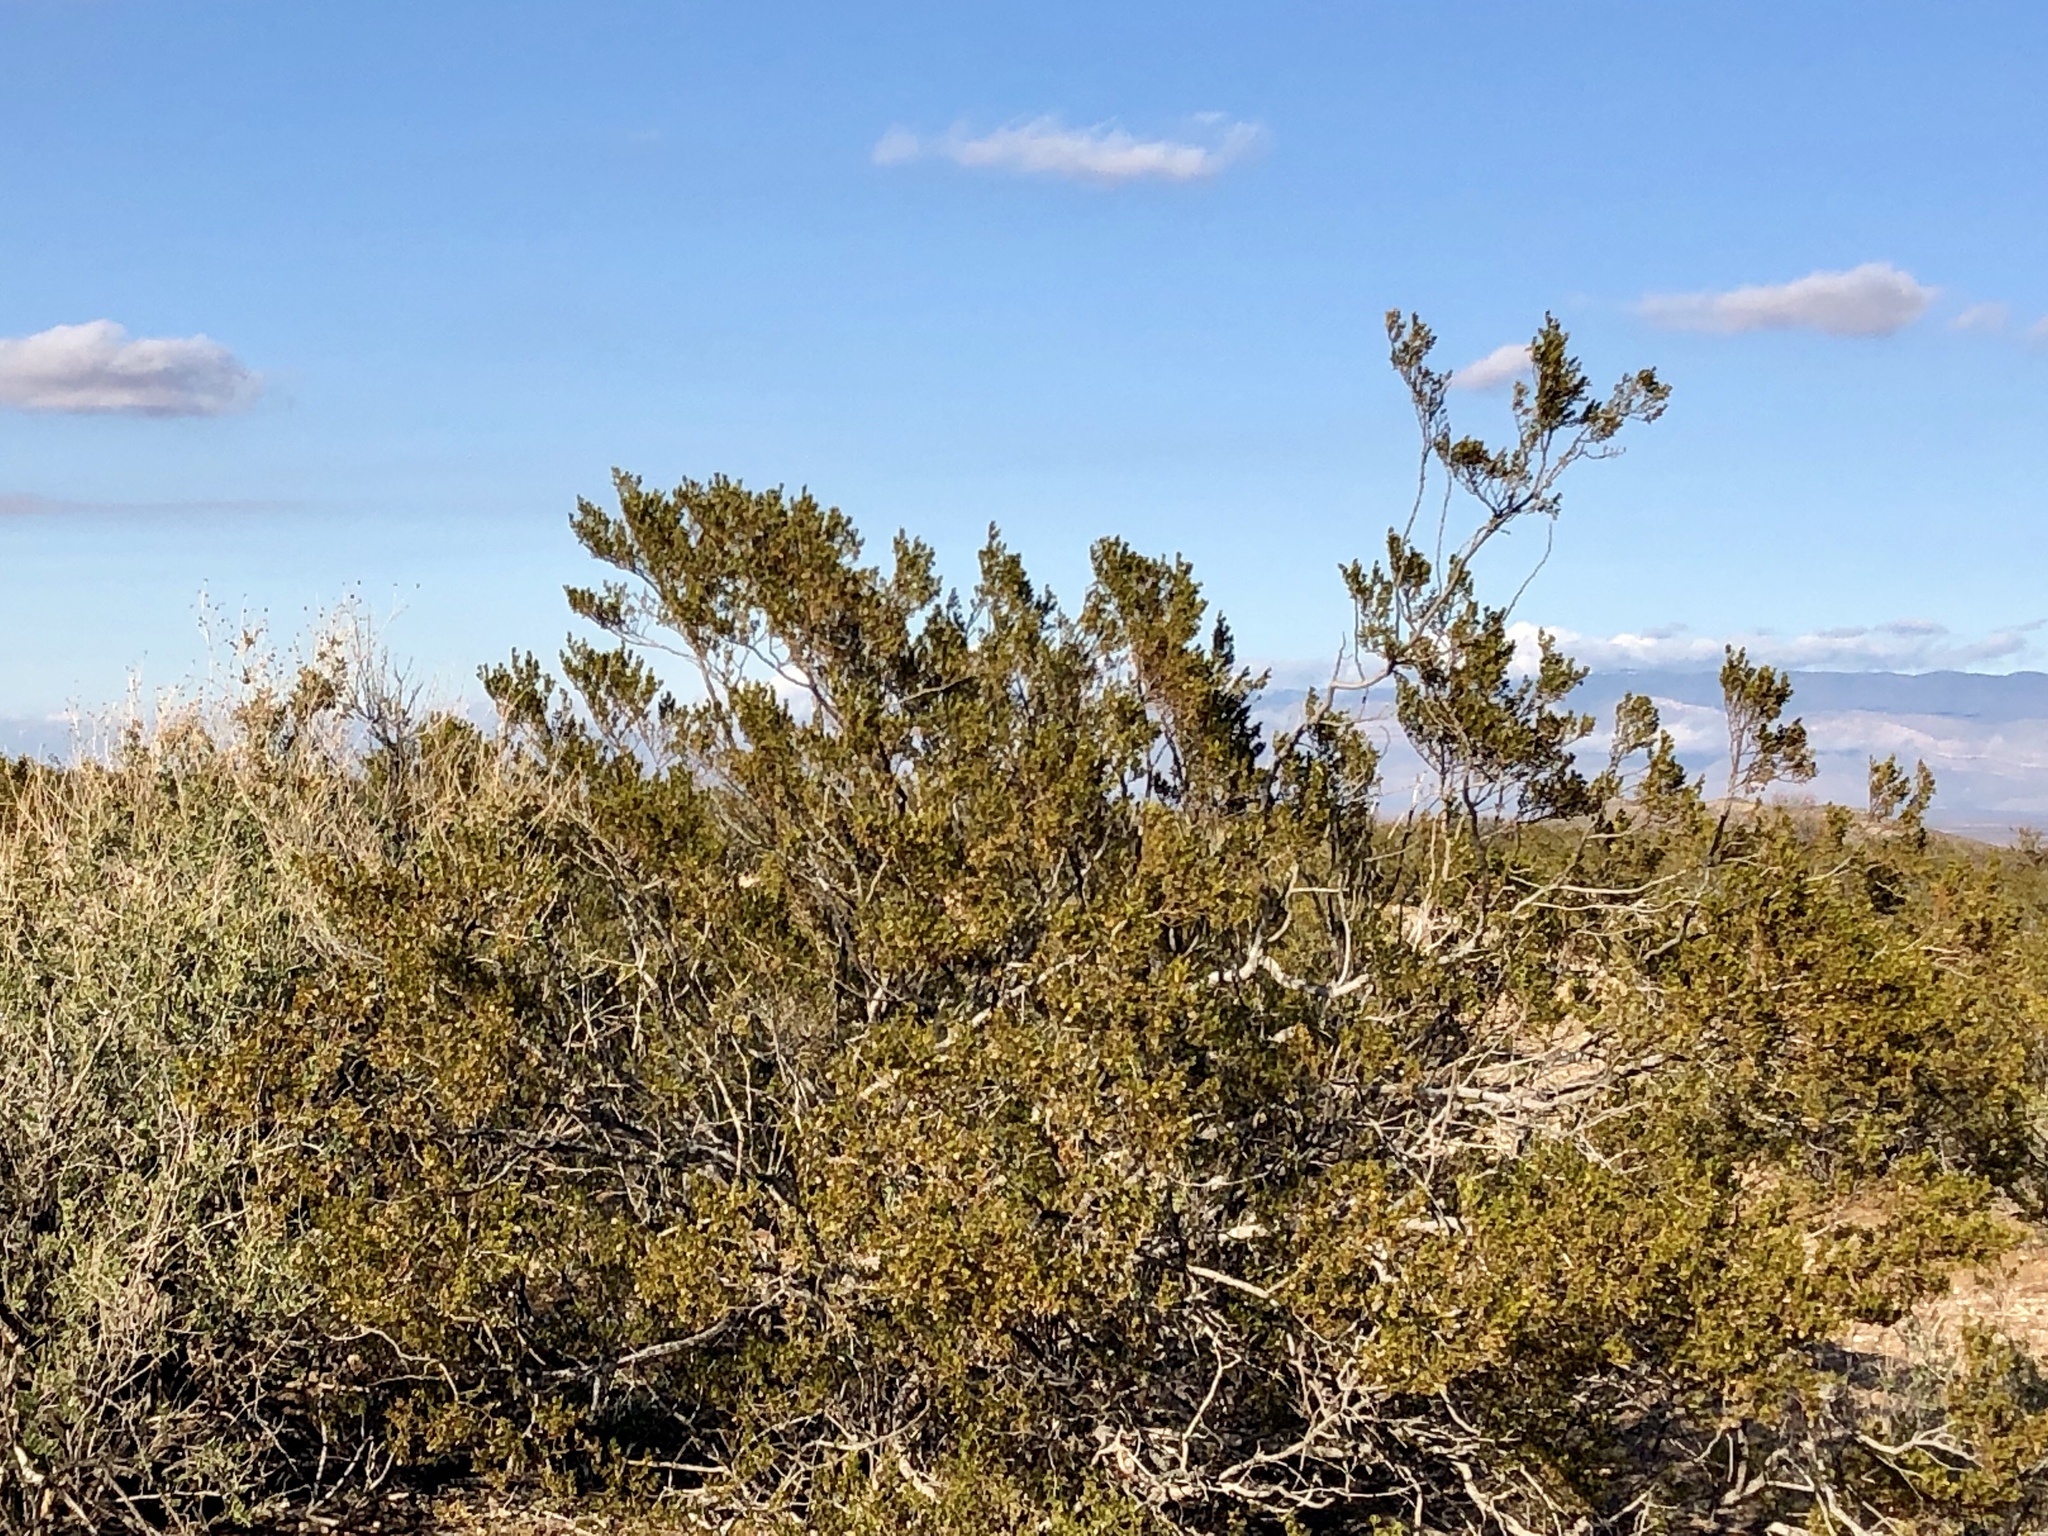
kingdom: Plantae
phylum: Tracheophyta
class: Magnoliopsida
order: Zygophyllales
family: Zygophyllaceae
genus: Larrea
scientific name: Larrea tridentata
